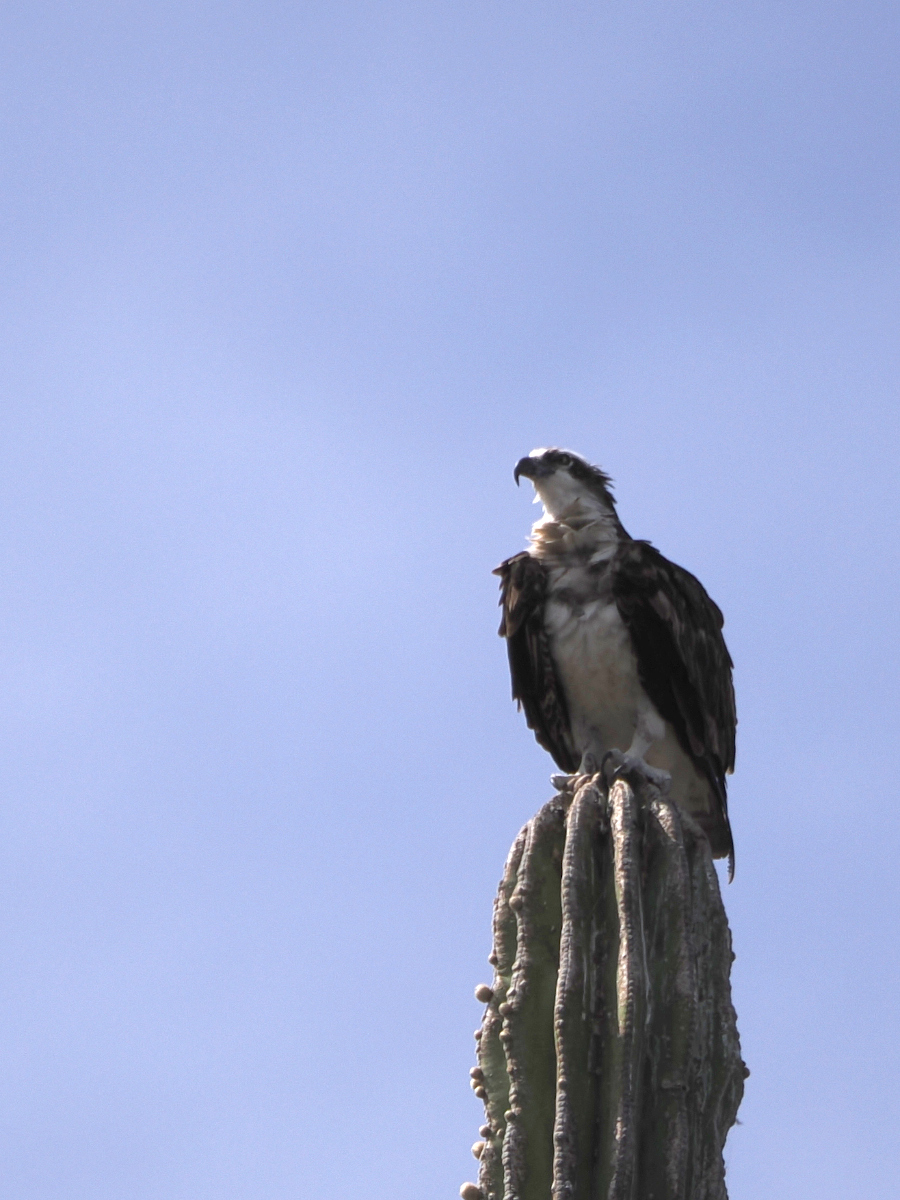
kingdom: Animalia
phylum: Chordata
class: Aves
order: Accipitriformes
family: Pandionidae
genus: Pandion
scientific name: Pandion haliaetus
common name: Osprey
